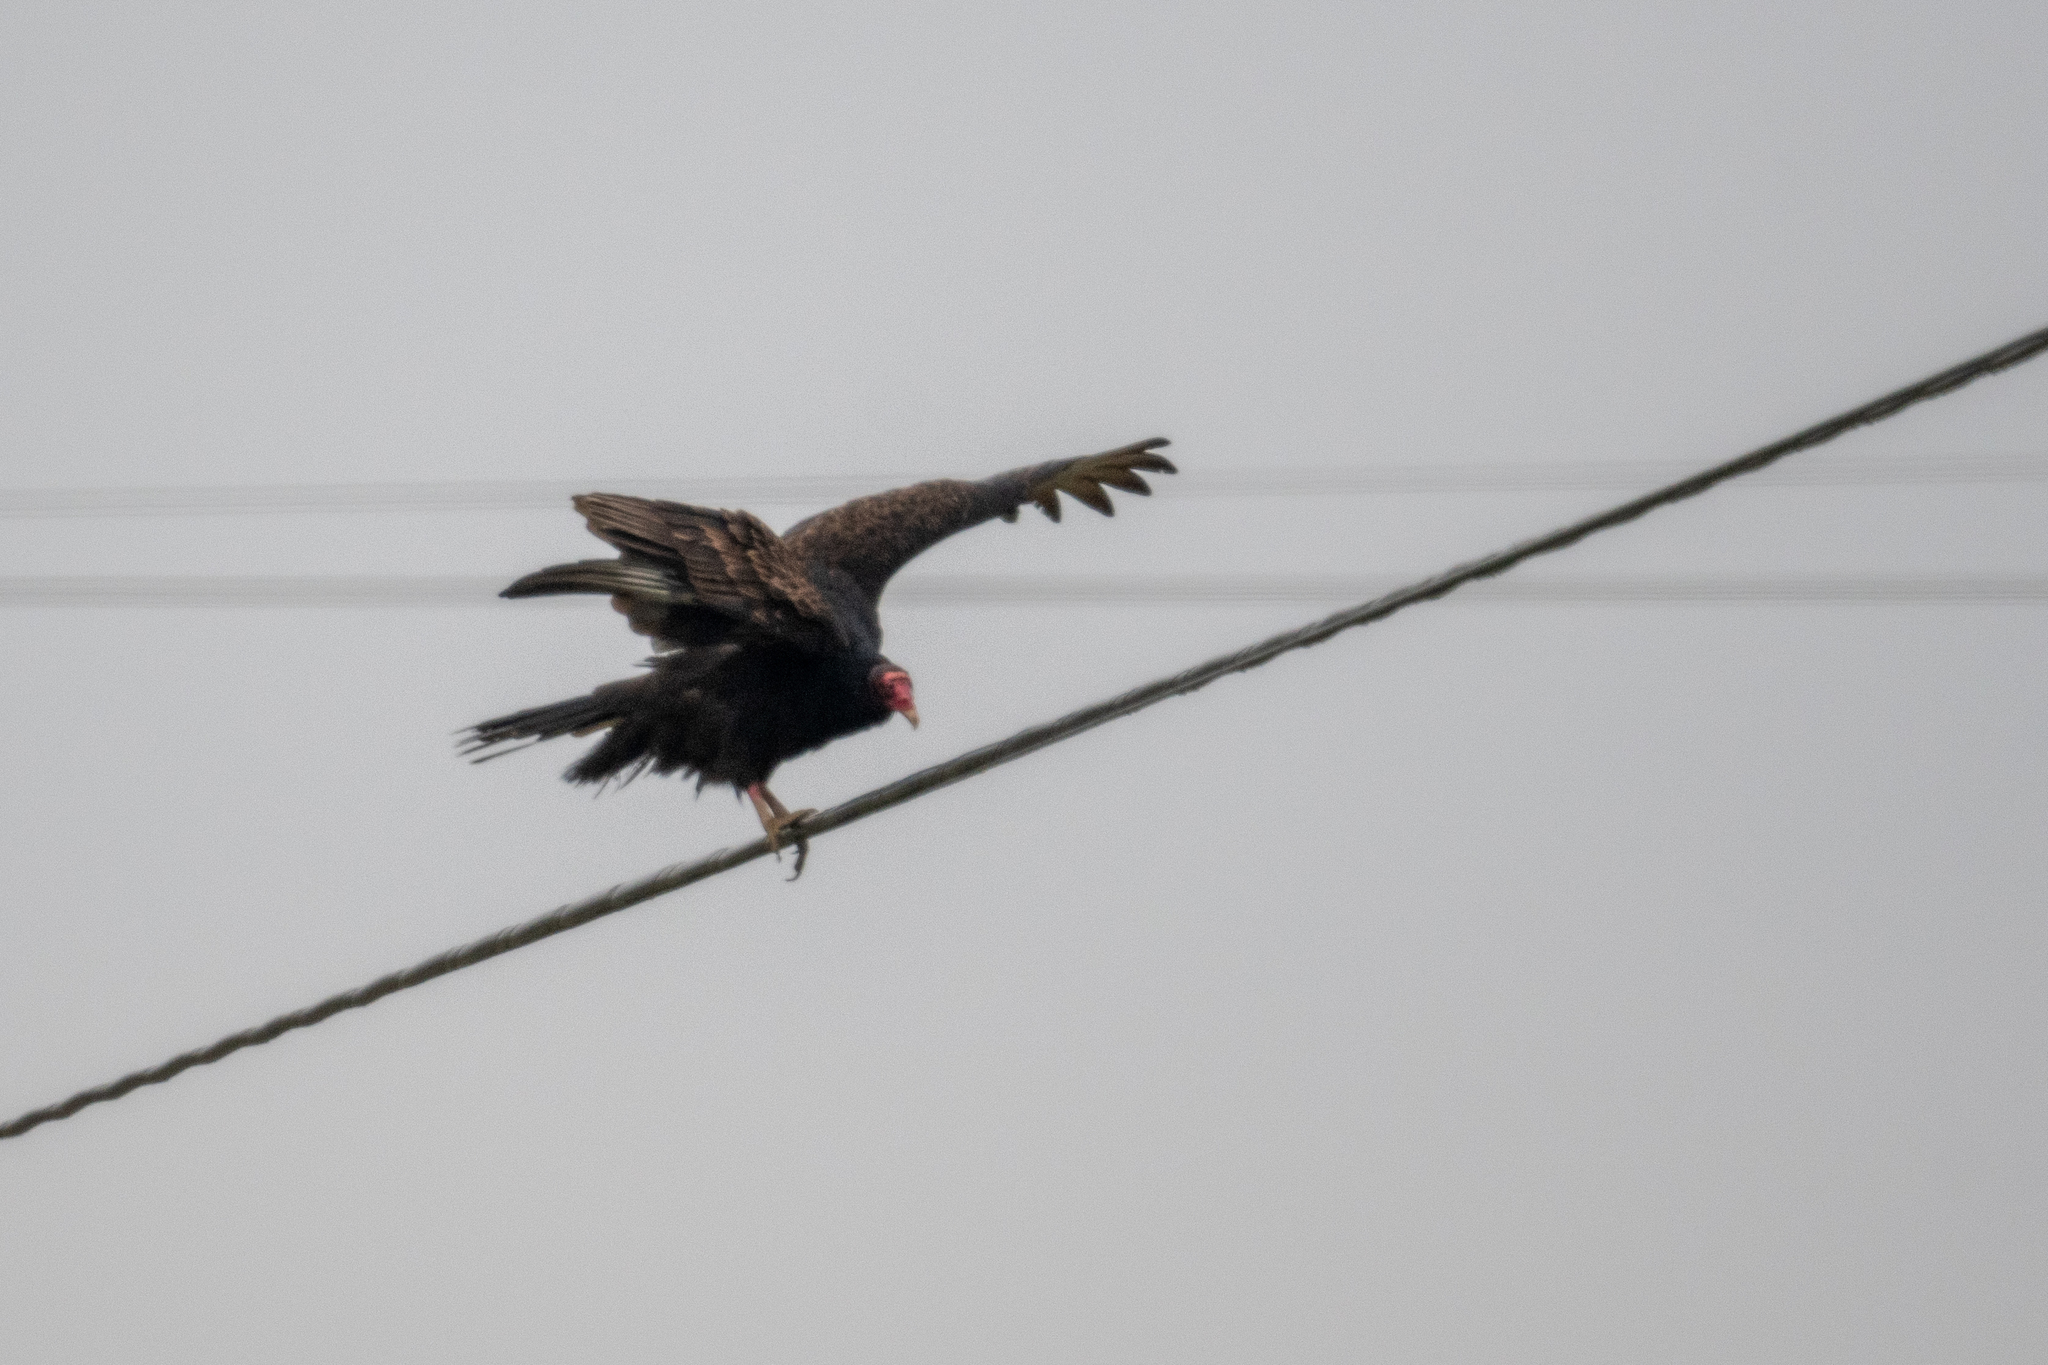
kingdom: Animalia
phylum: Chordata
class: Aves
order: Accipitriformes
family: Cathartidae
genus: Cathartes
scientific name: Cathartes aura
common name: Turkey vulture
